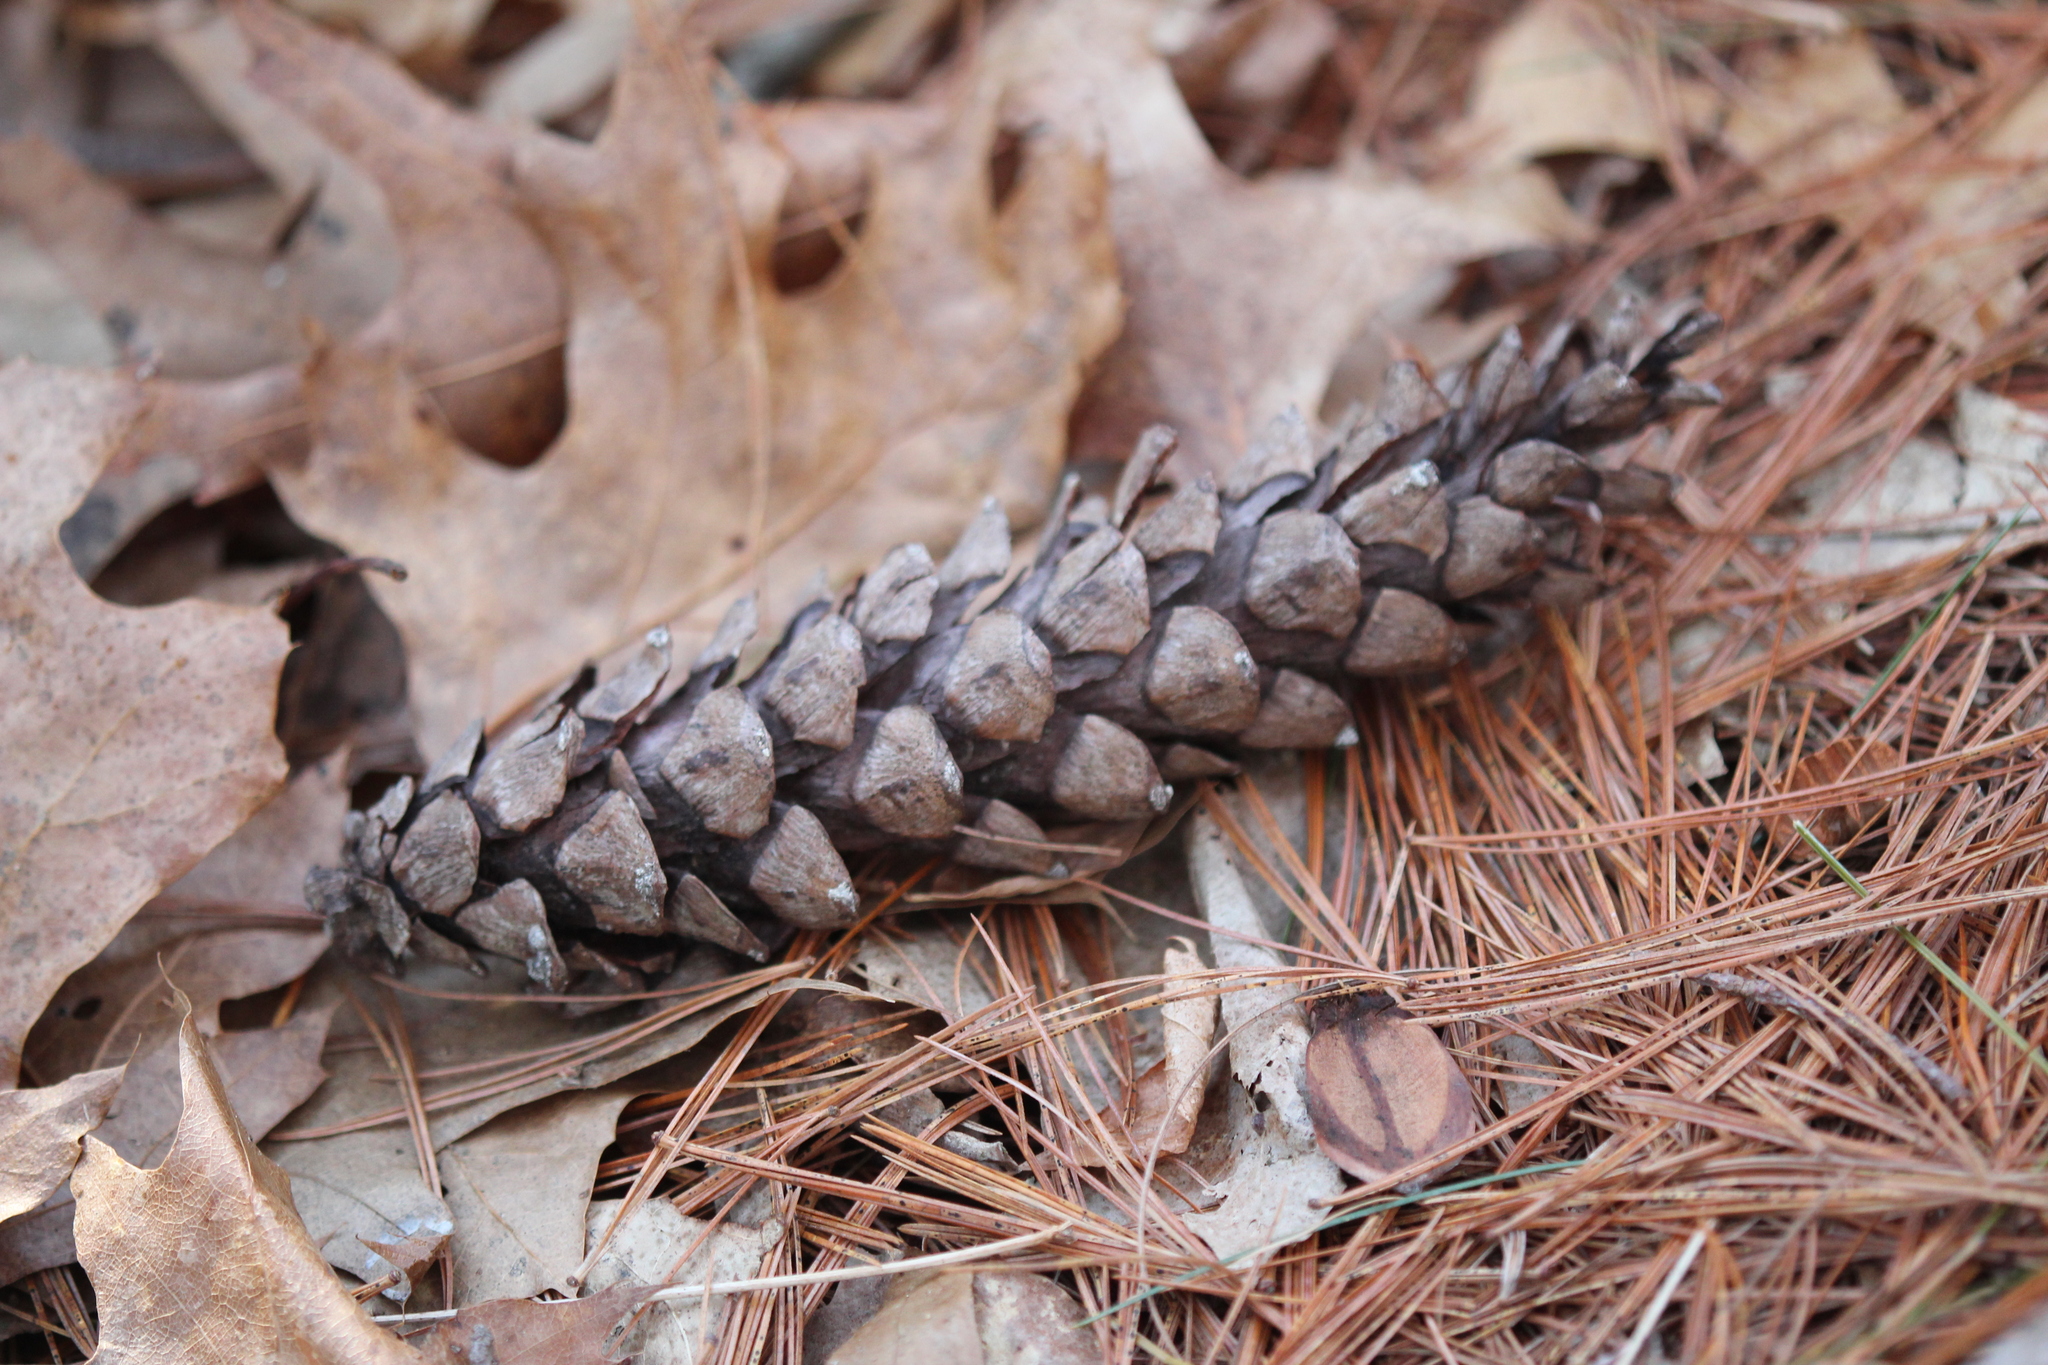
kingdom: Plantae
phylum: Tracheophyta
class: Pinopsida
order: Pinales
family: Pinaceae
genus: Pinus
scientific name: Pinus strobus
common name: Weymouth pine
